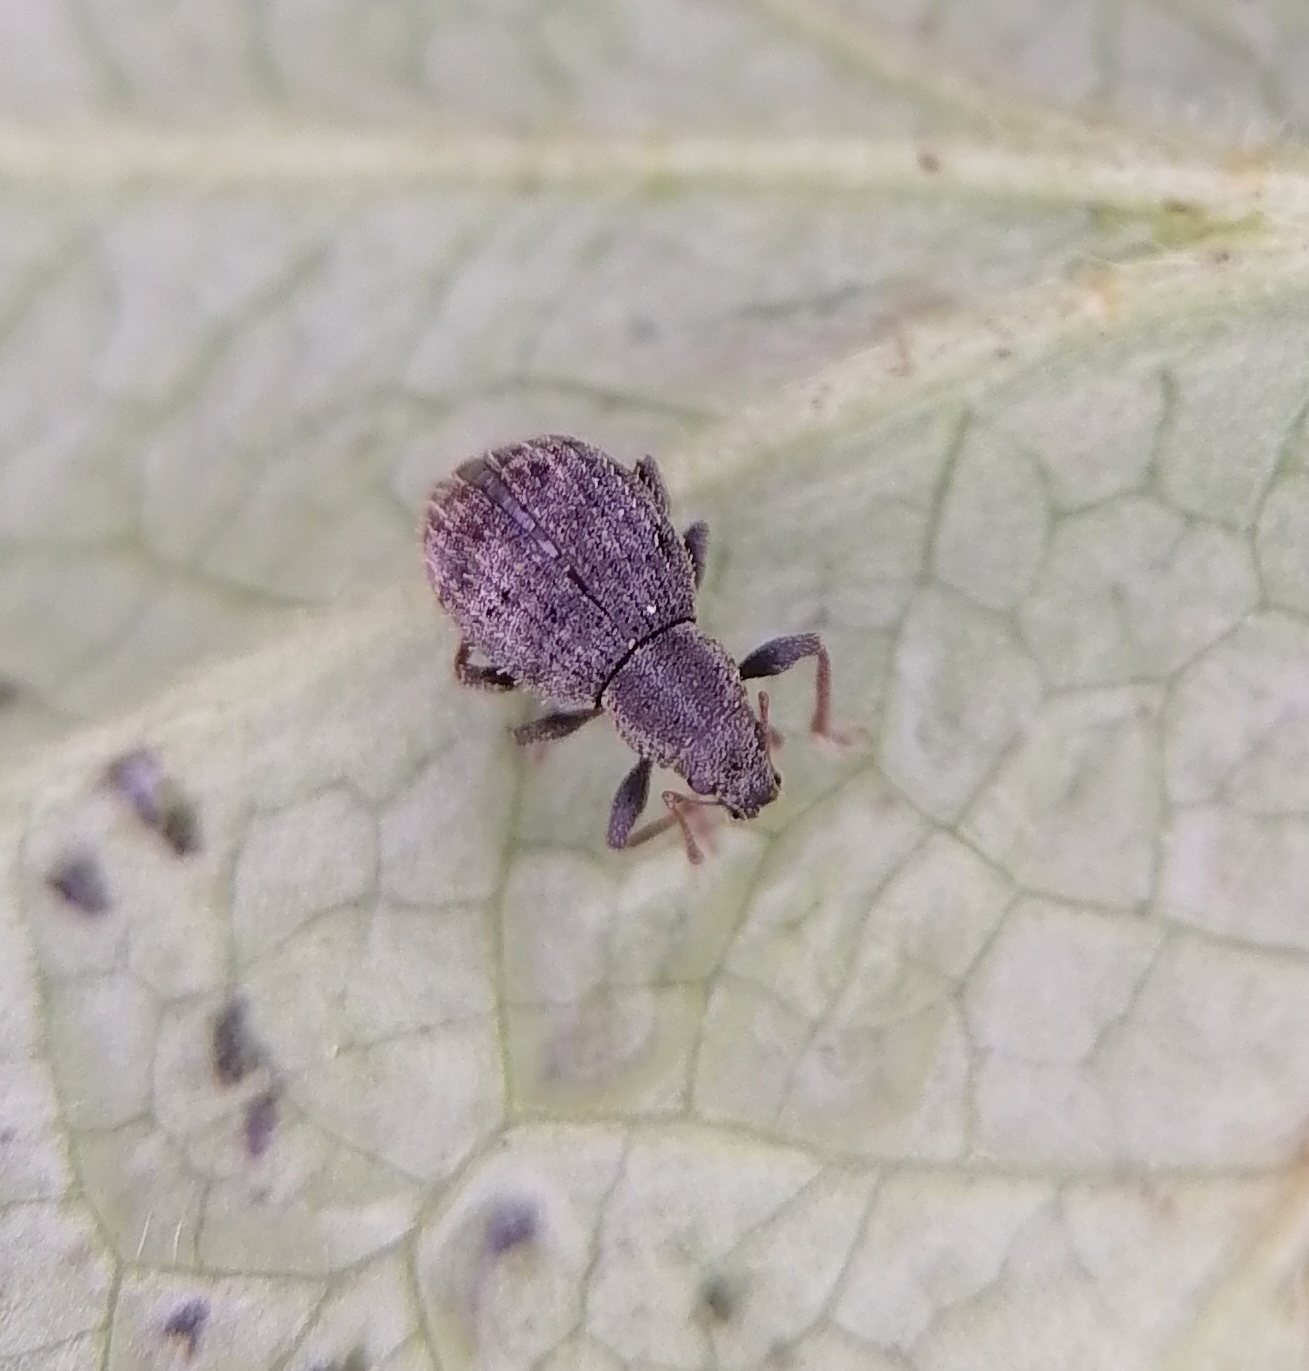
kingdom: Animalia
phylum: Arthropoda
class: Insecta
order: Coleoptera
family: Curculionidae
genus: Sciaphilus
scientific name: Sciaphilus asperatus
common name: Weevil
